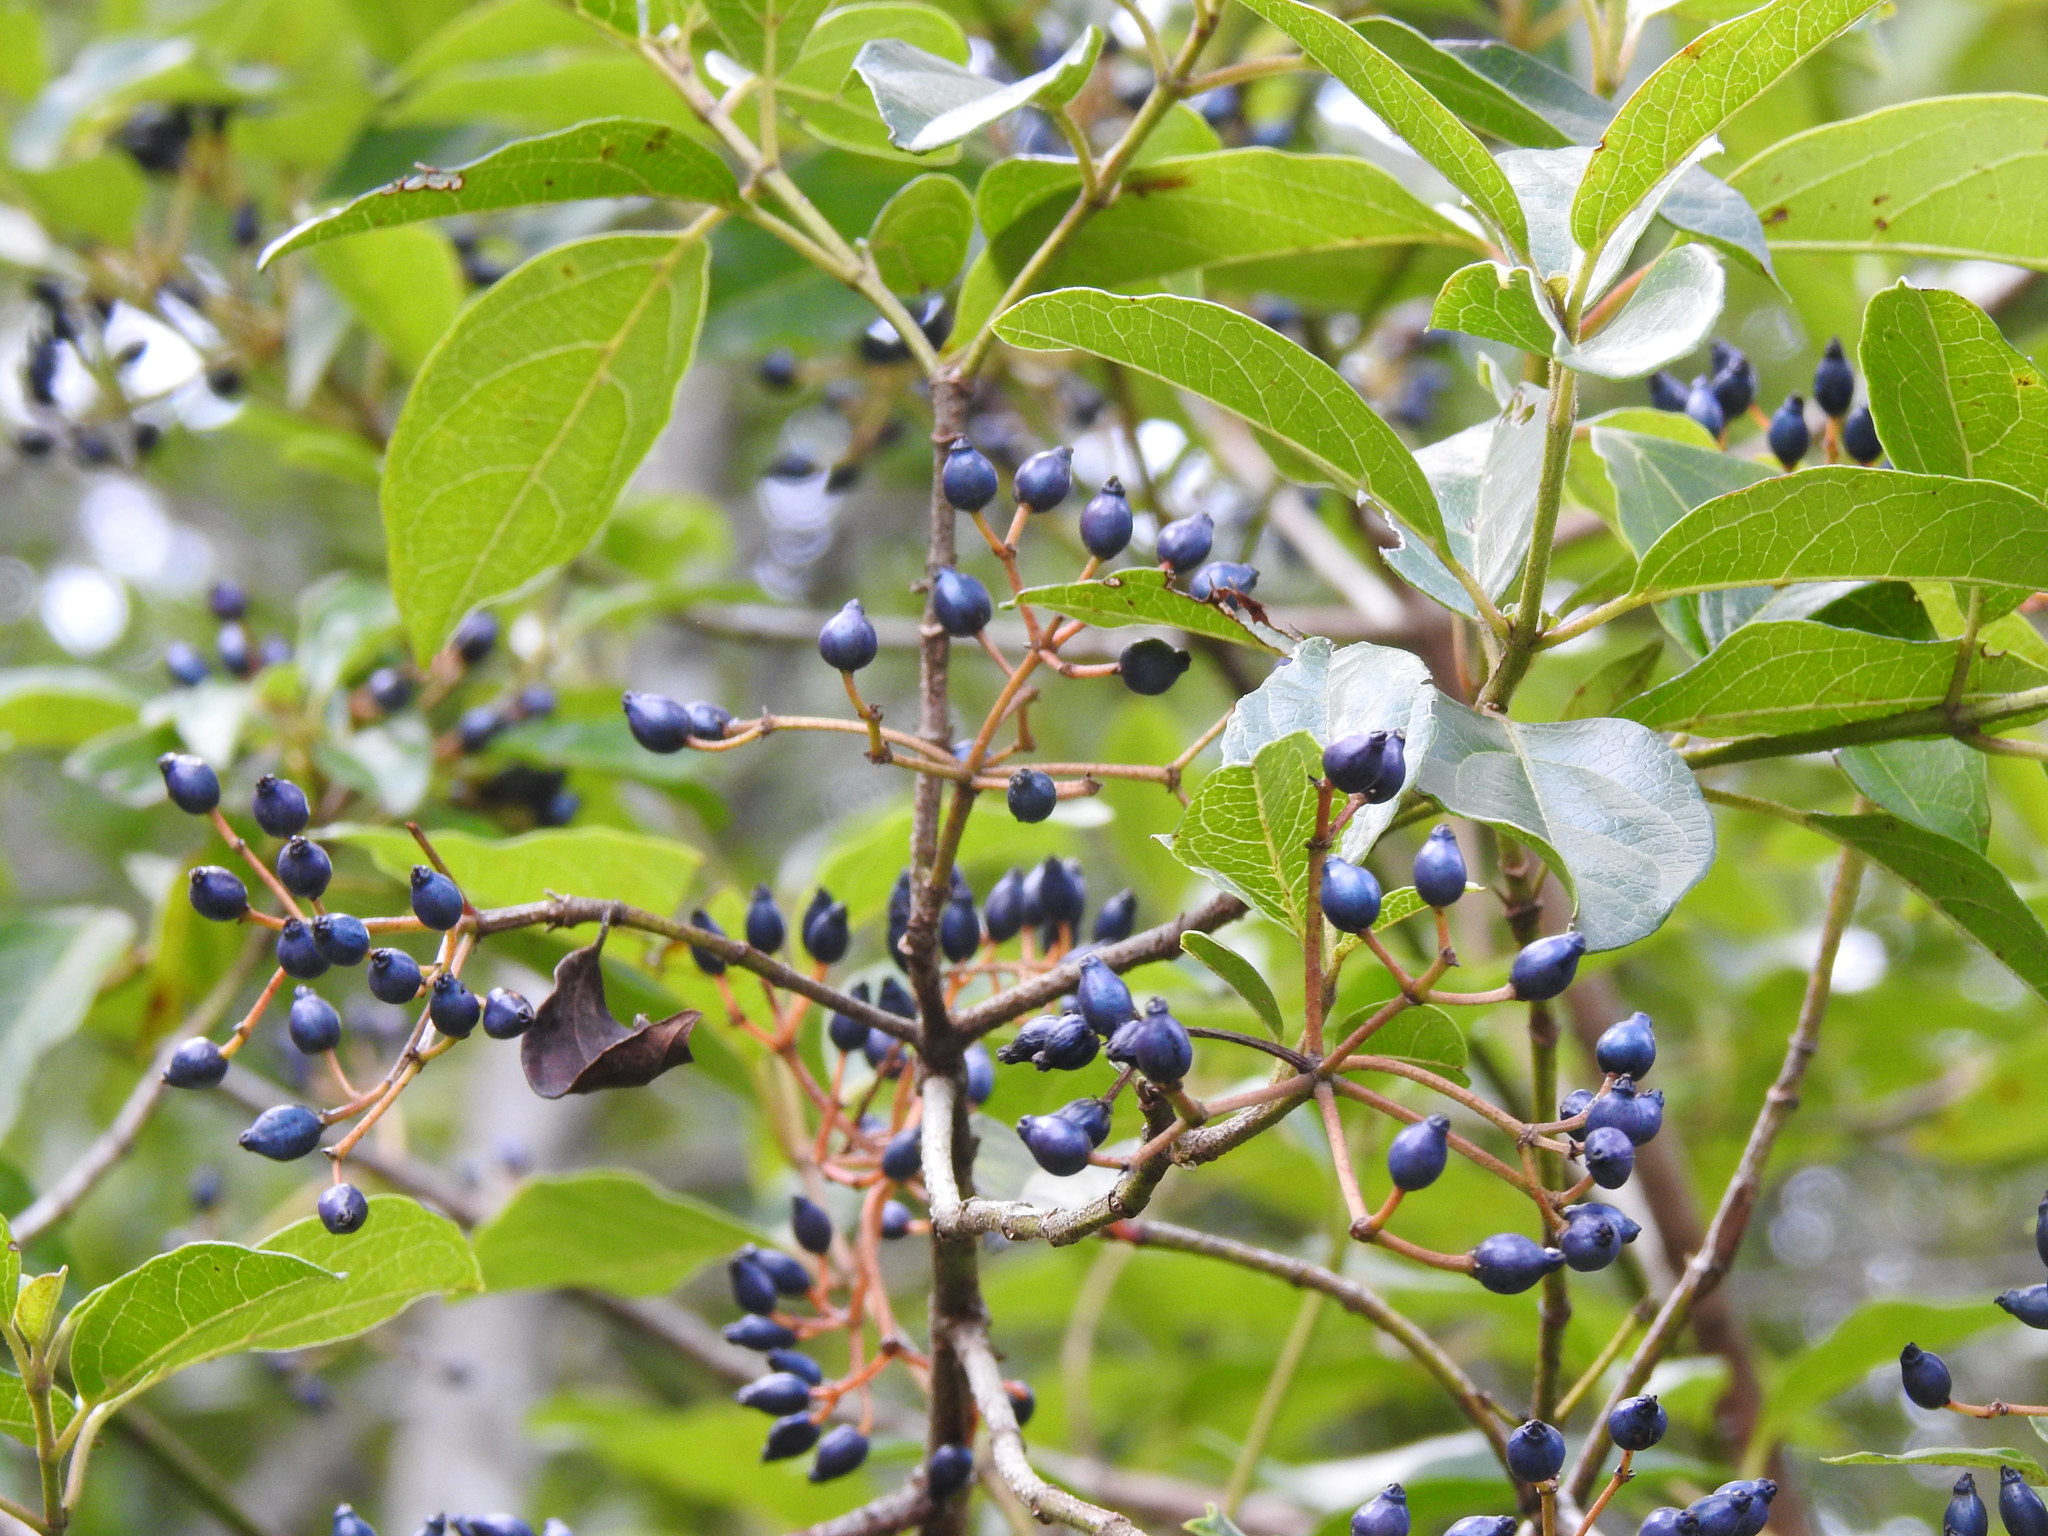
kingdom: Plantae
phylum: Tracheophyta
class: Magnoliopsida
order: Dipsacales
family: Viburnaceae
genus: Viburnum
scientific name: Viburnum tinus
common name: Laurustinus
